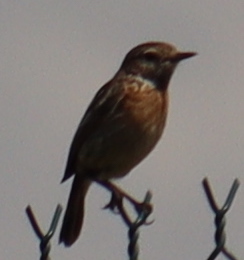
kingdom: Animalia
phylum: Chordata
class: Aves
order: Passeriformes
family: Muscicapidae
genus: Saxicola
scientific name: Saxicola rubicola
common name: European stonechat
